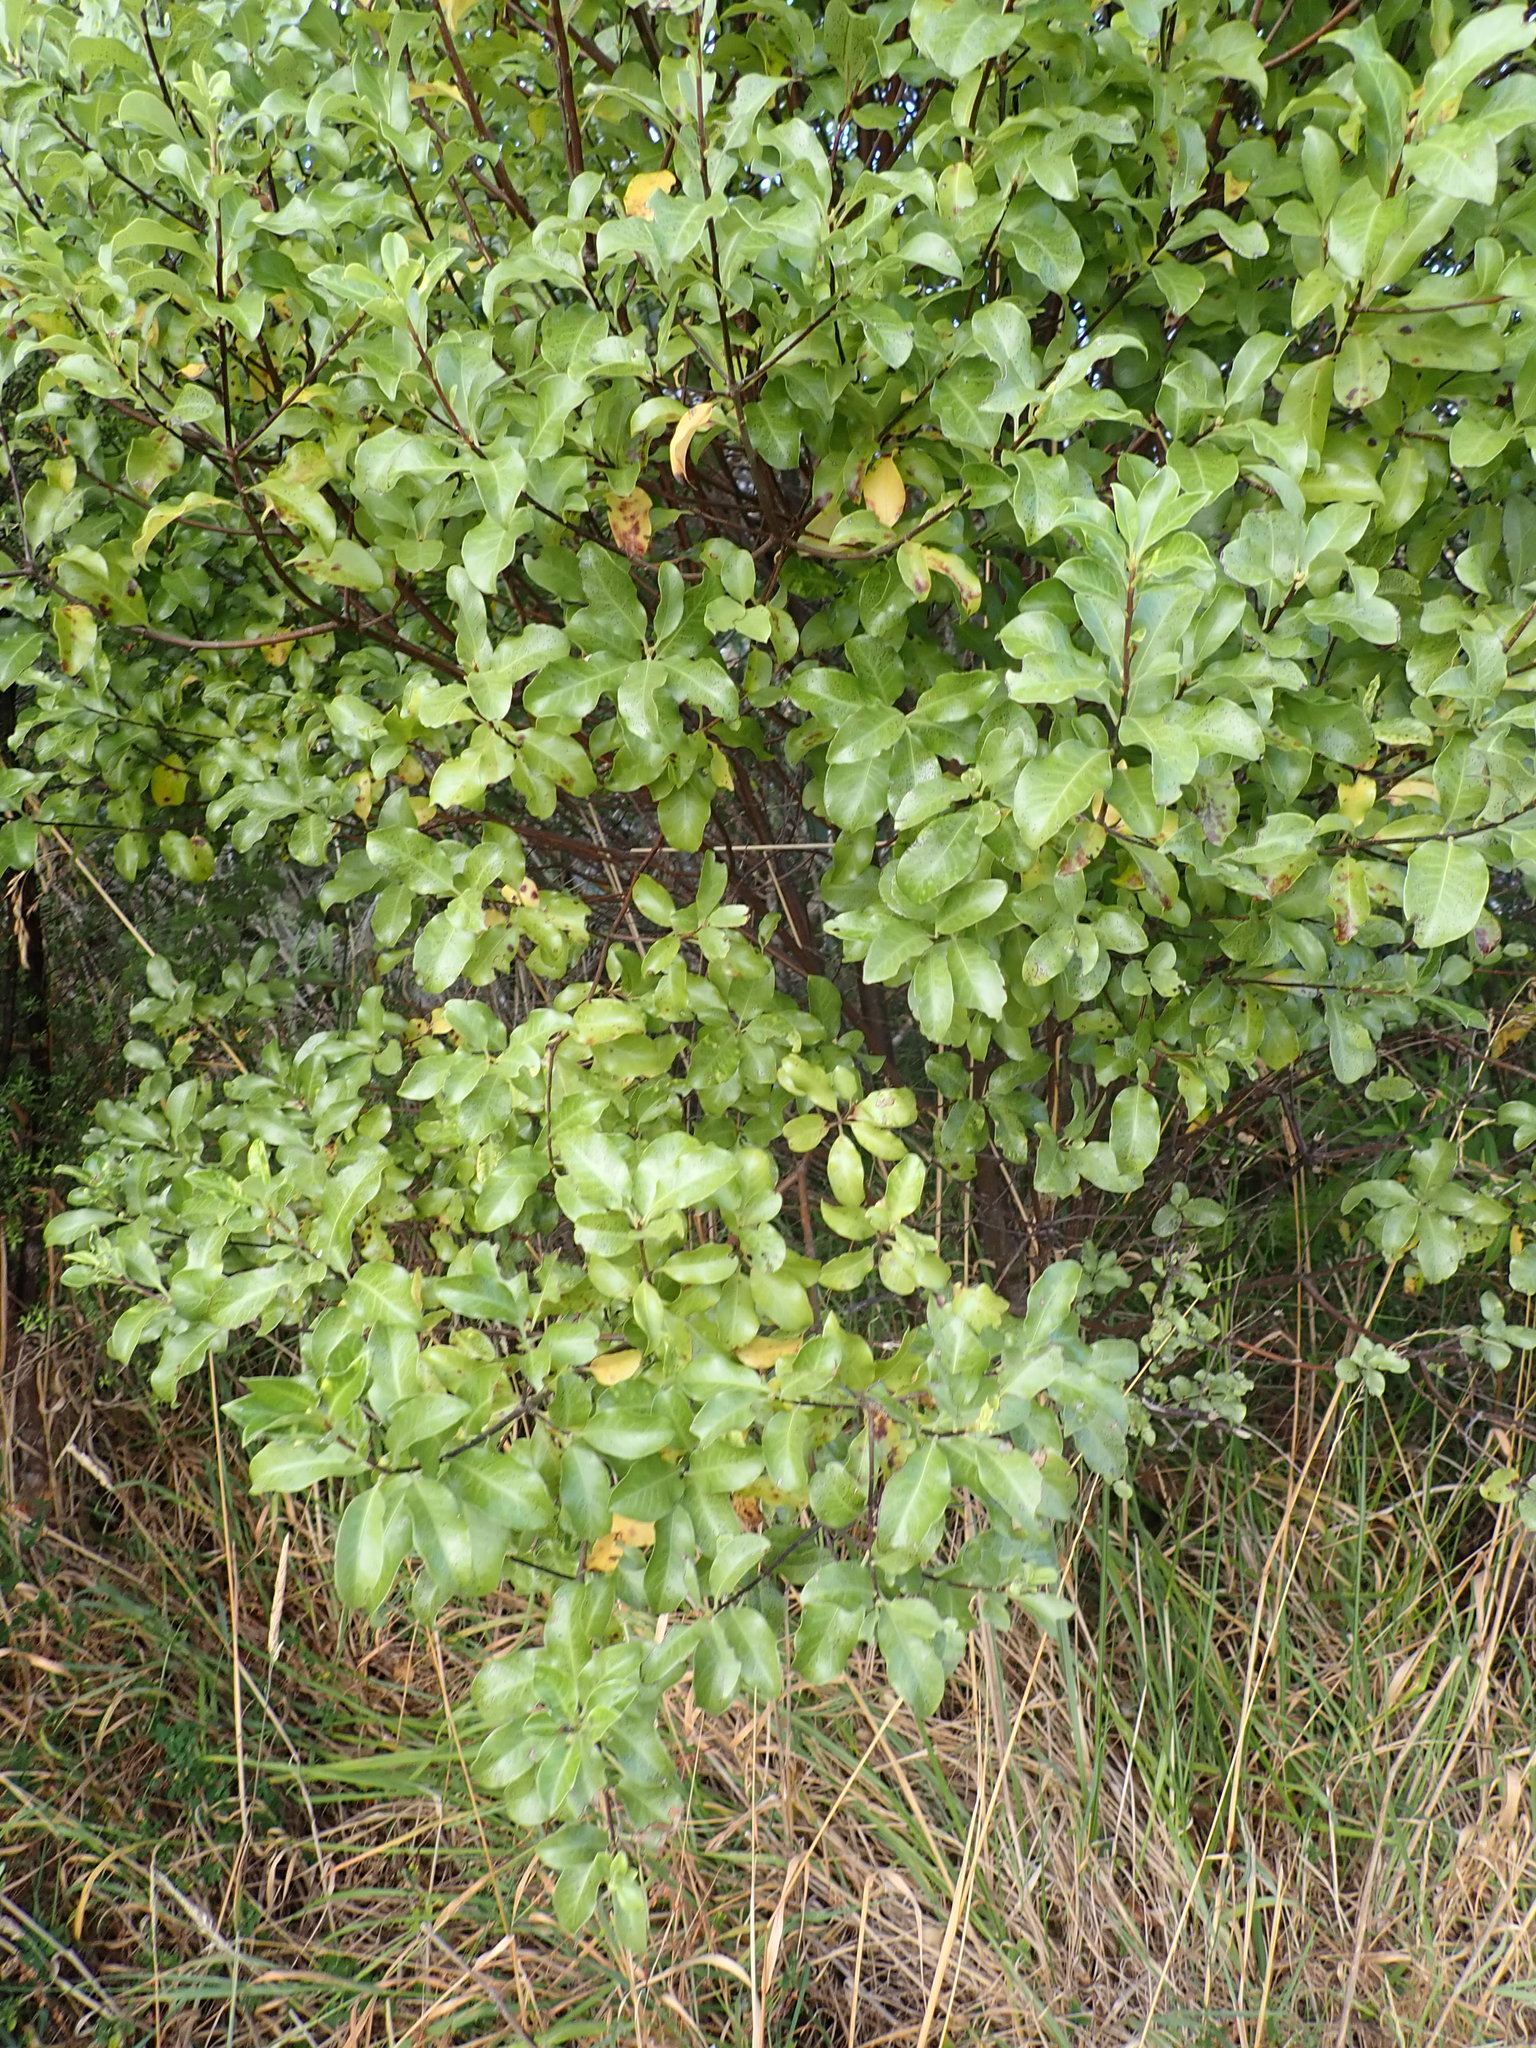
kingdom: Plantae
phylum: Tracheophyta
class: Magnoliopsida
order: Apiales
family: Pittosporaceae
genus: Pittosporum
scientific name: Pittosporum tenuifolium
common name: Kohuhu
